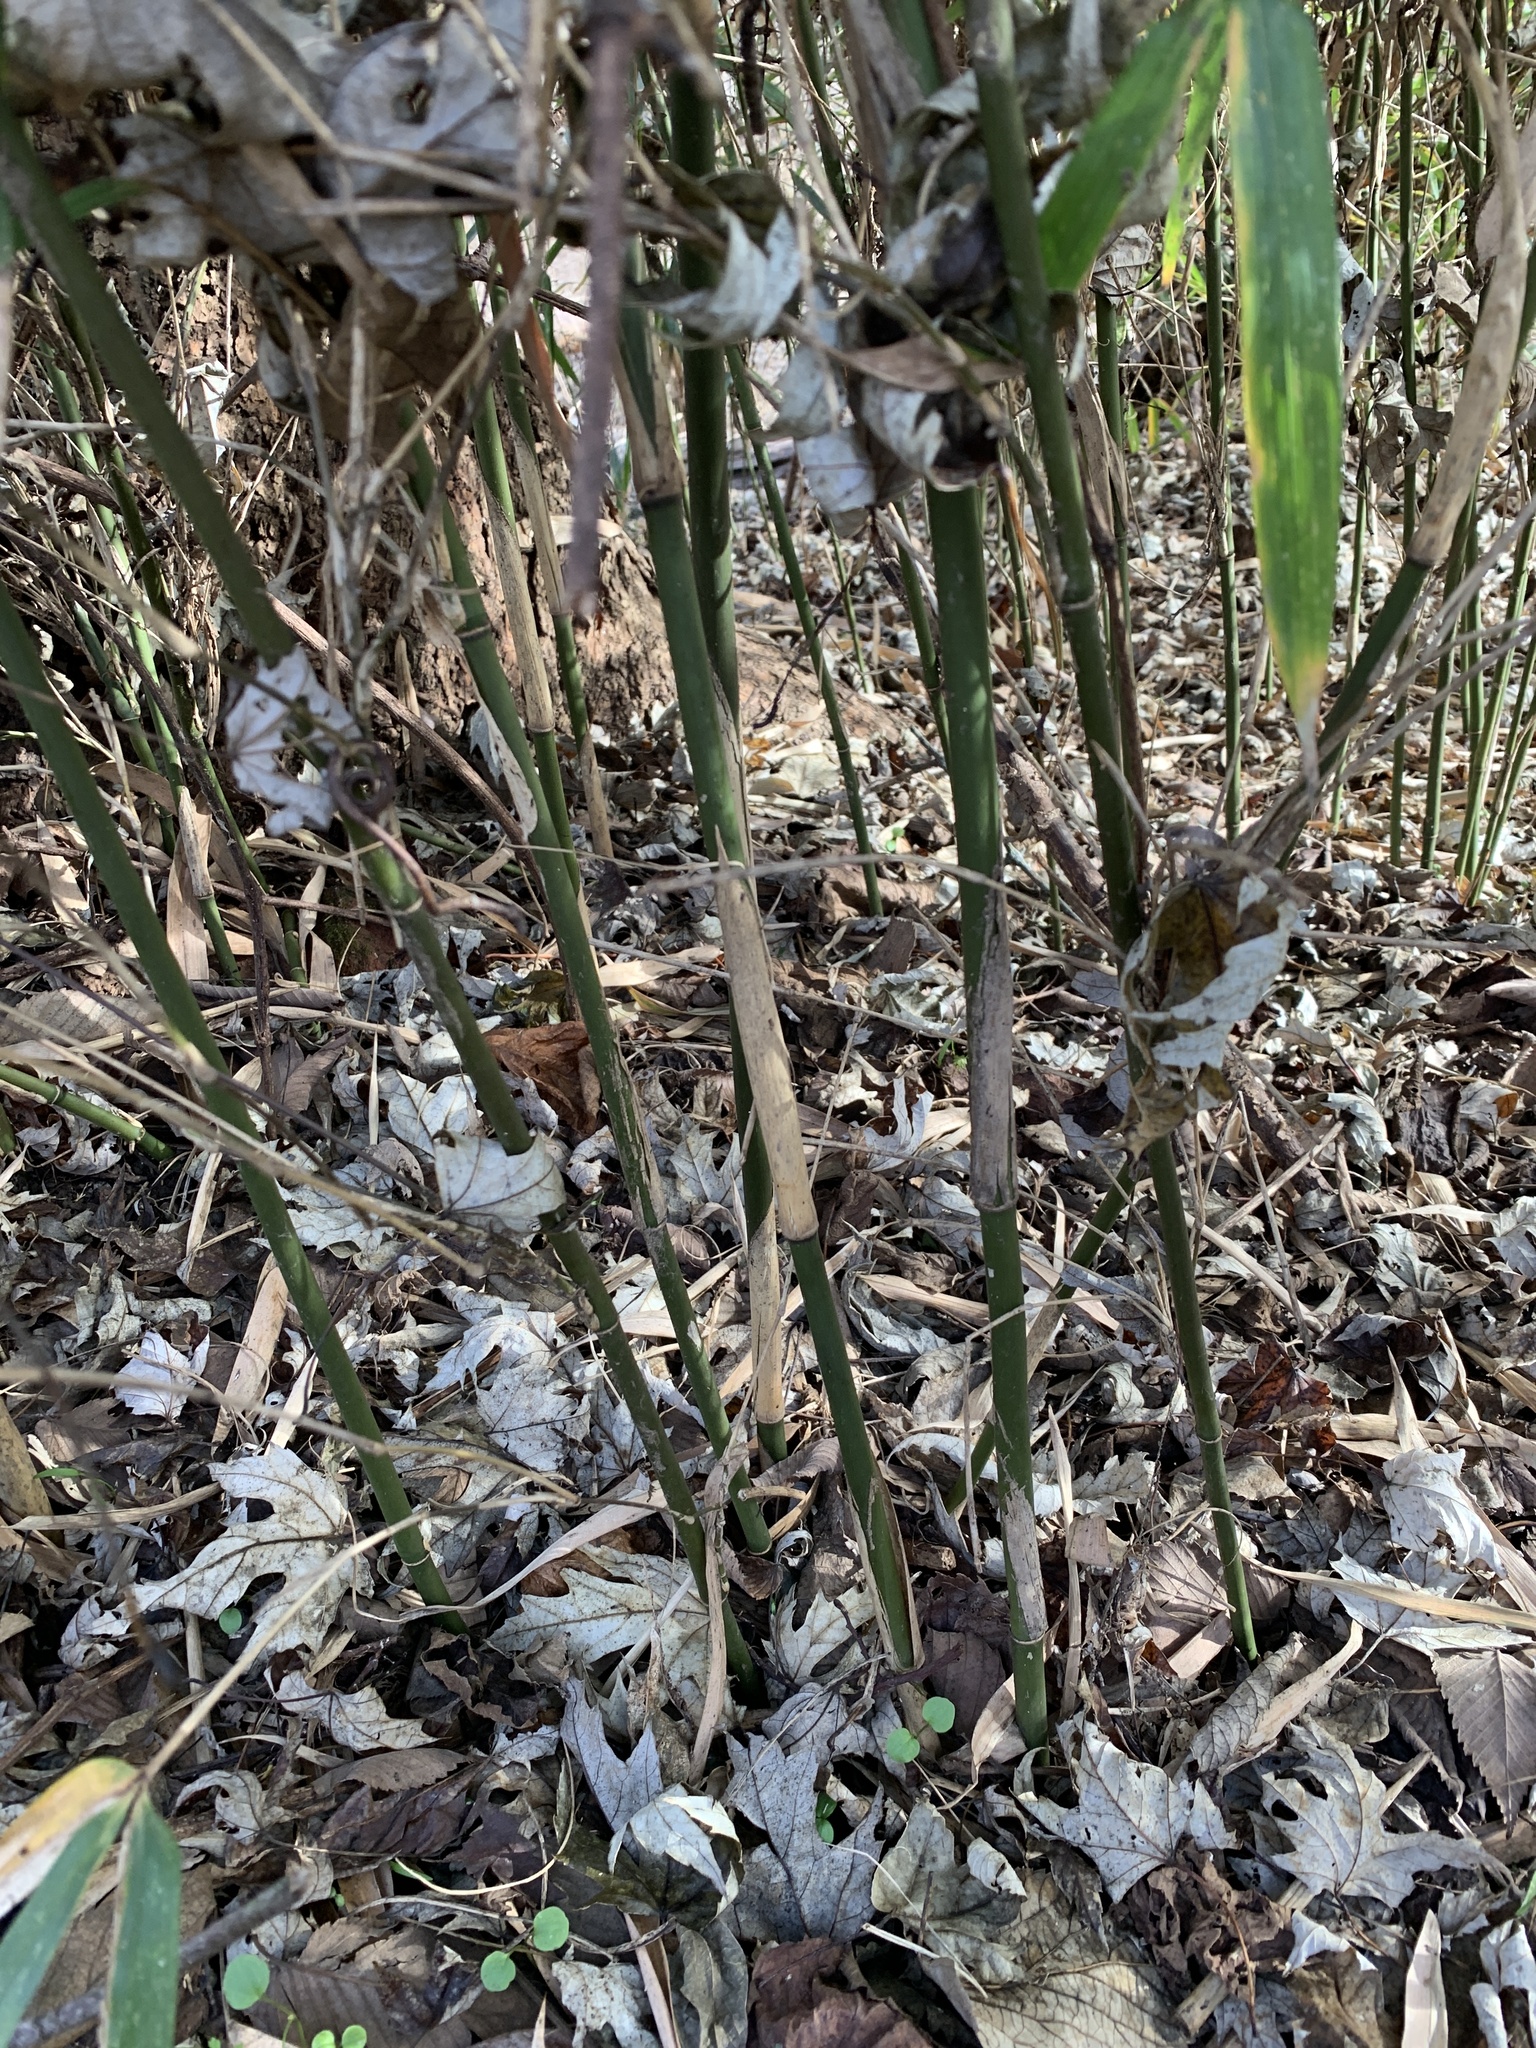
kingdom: Plantae
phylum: Tracheophyta
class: Liliopsida
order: Poales
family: Poaceae
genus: Arundinaria
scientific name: Arundinaria gigantea
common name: Giant cane
